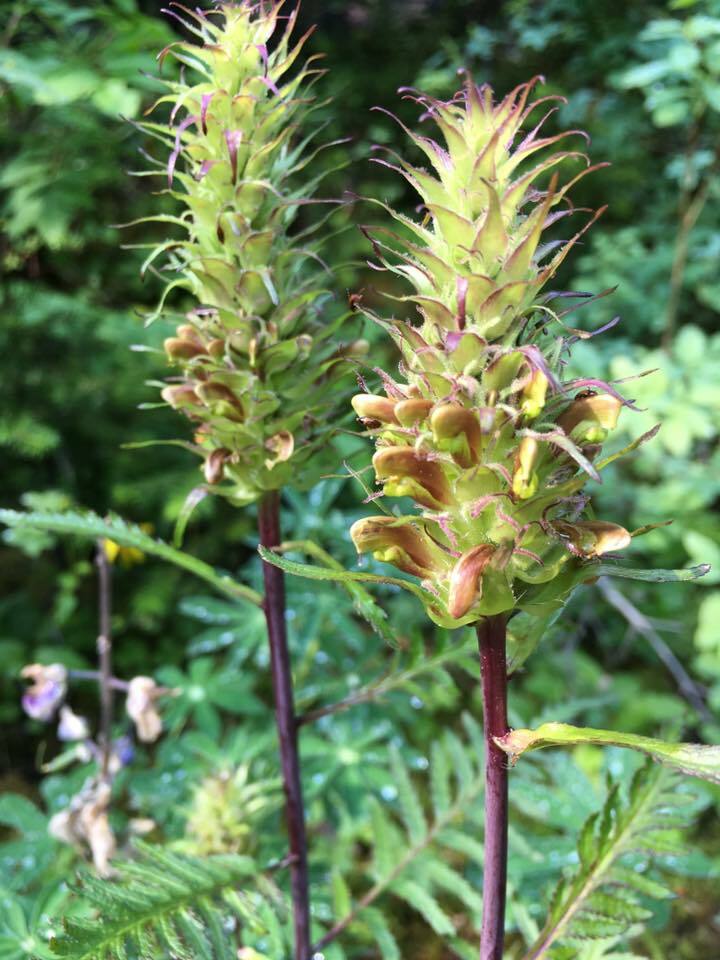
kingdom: Plantae
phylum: Tracheophyta
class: Magnoliopsida
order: Lamiales
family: Orobanchaceae
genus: Pedicularis
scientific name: Pedicularis bracteosa
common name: Bracted lousewort
